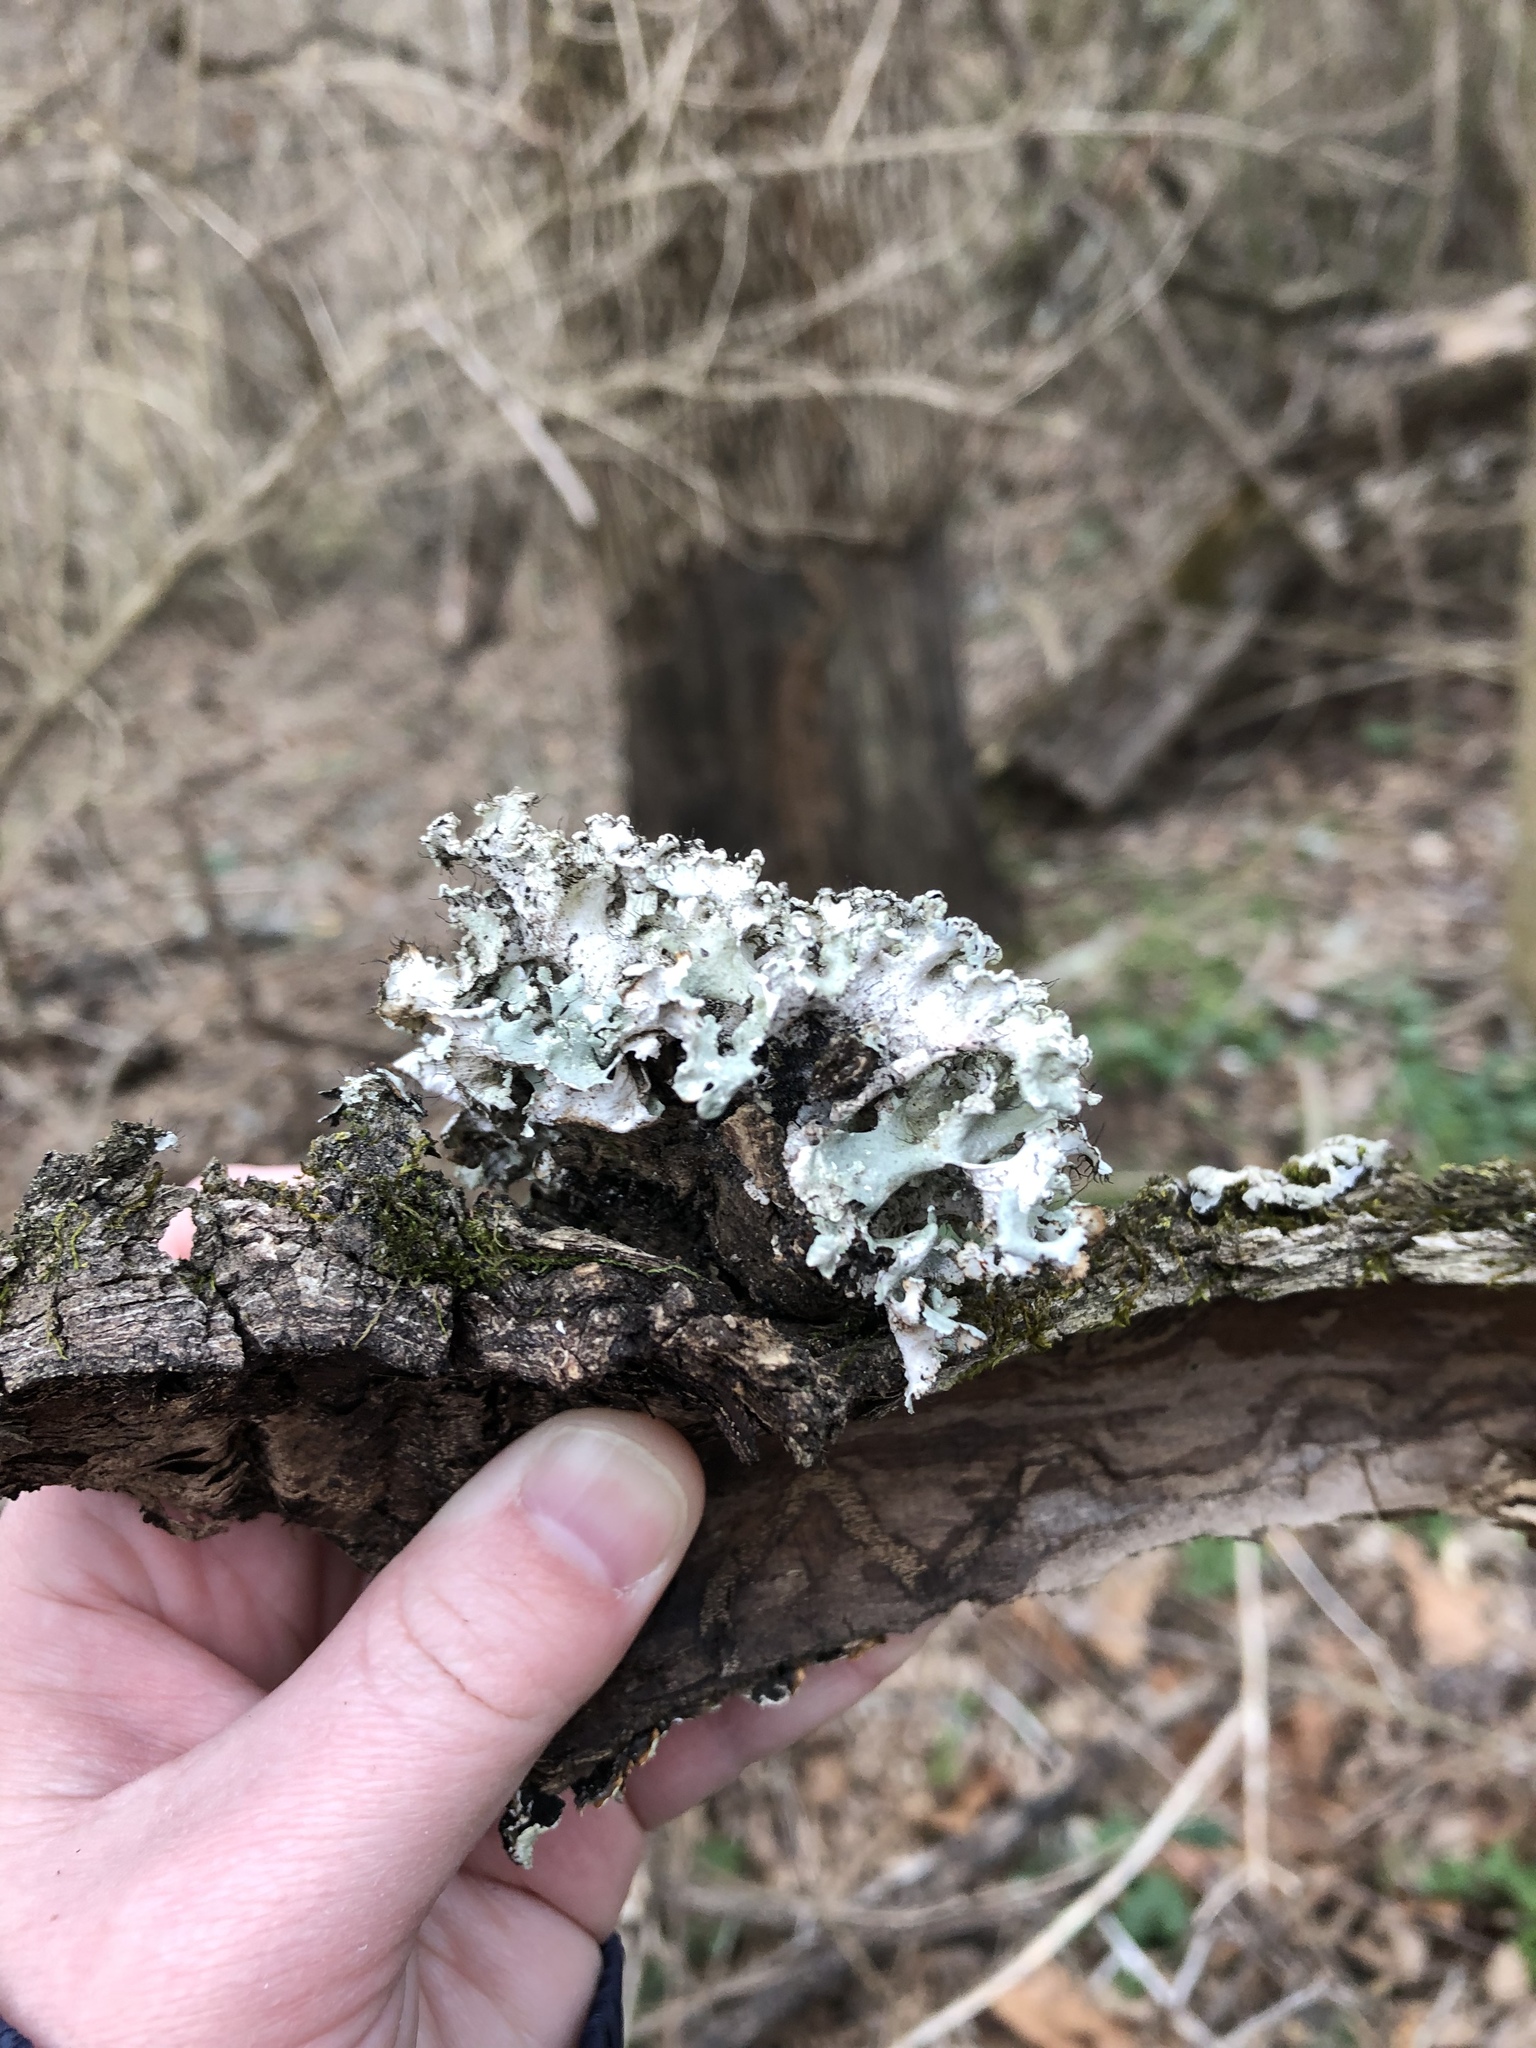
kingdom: Fungi
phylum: Ascomycota
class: Lecanoromycetes
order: Lecanorales
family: Parmeliaceae
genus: Parmotrema
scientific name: Parmotrema hypotropum
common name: Powdered ruffle lichen
